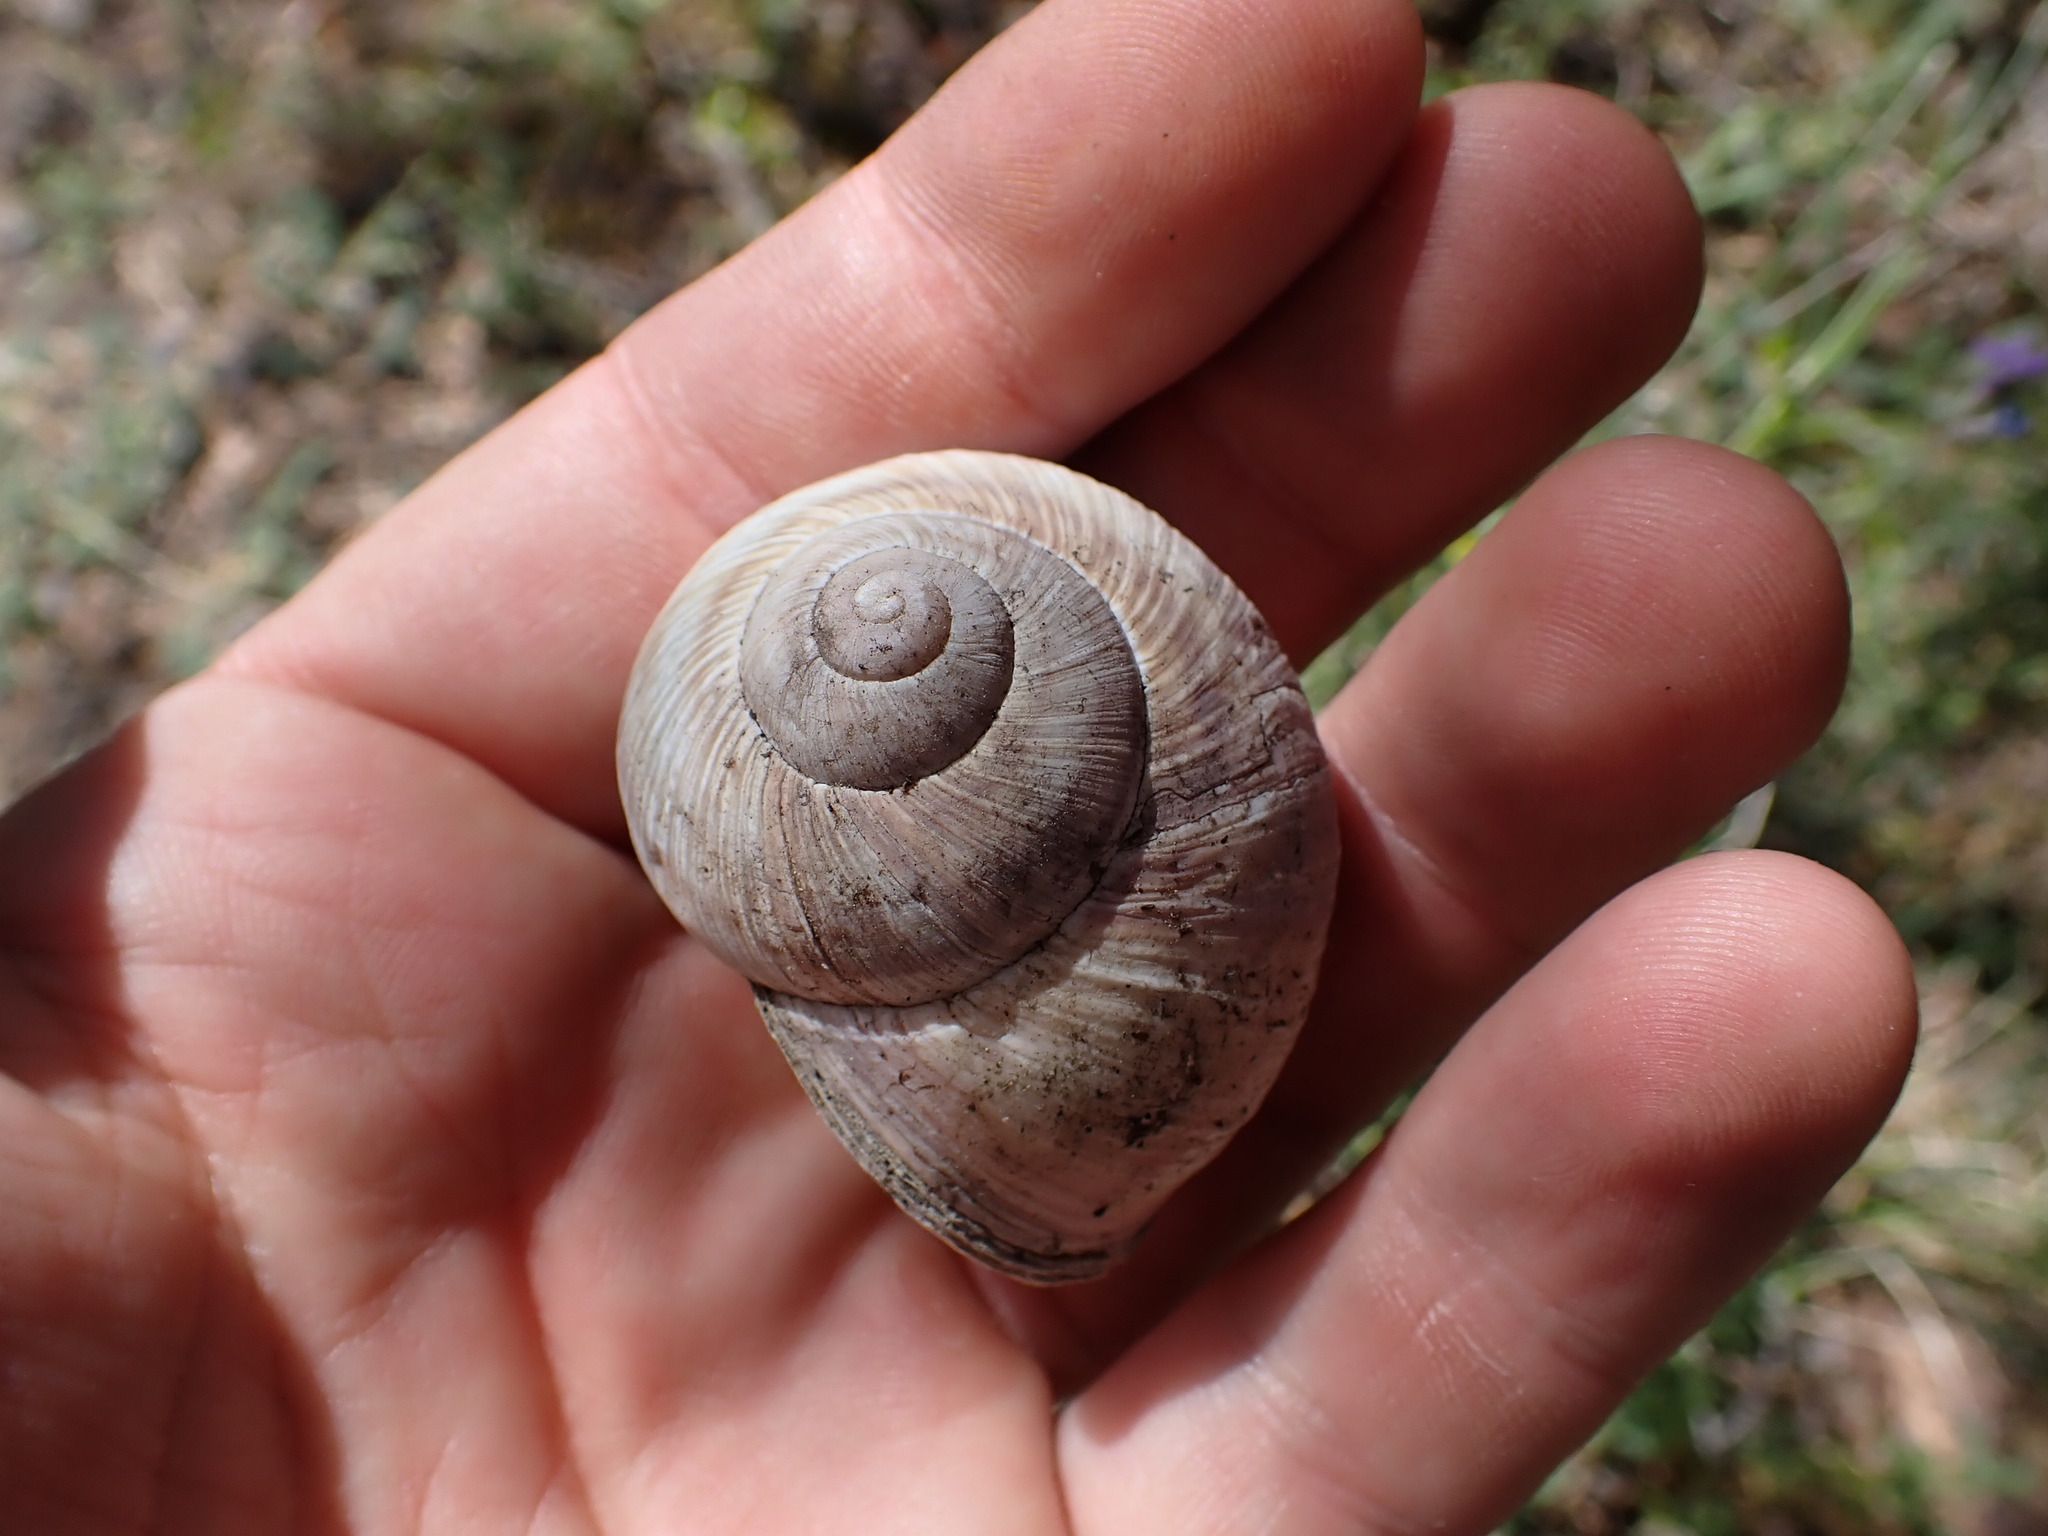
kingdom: Animalia
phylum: Mollusca
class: Gastropoda
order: Stylommatophora
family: Helicidae
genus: Helix
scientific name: Helix pomatia
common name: Roman snail
